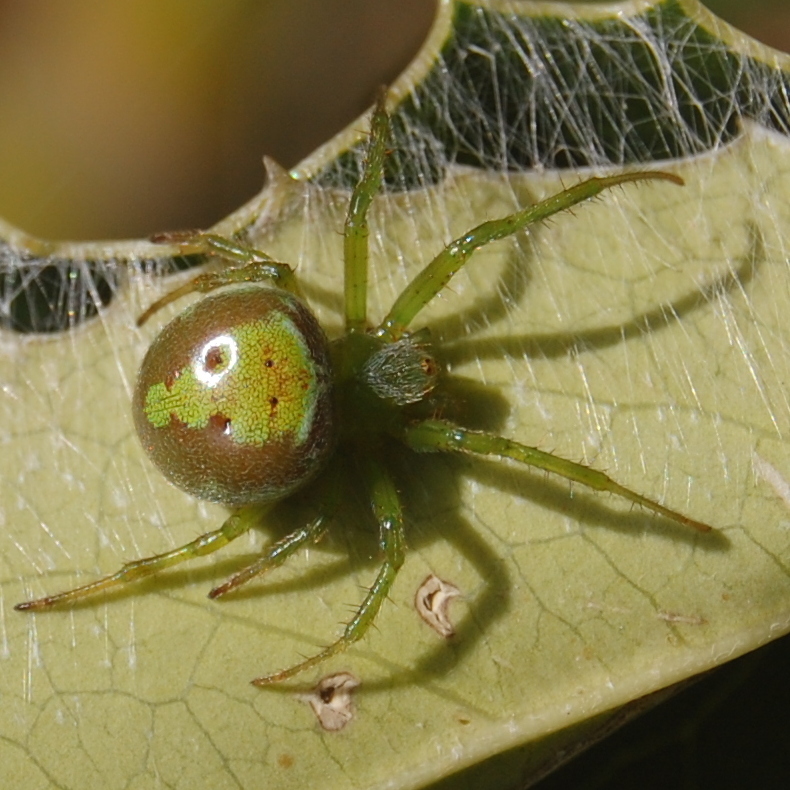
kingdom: Animalia
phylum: Arthropoda
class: Arachnida
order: Araneae
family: Araneidae
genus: Araneus
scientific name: Araneus unanimus
